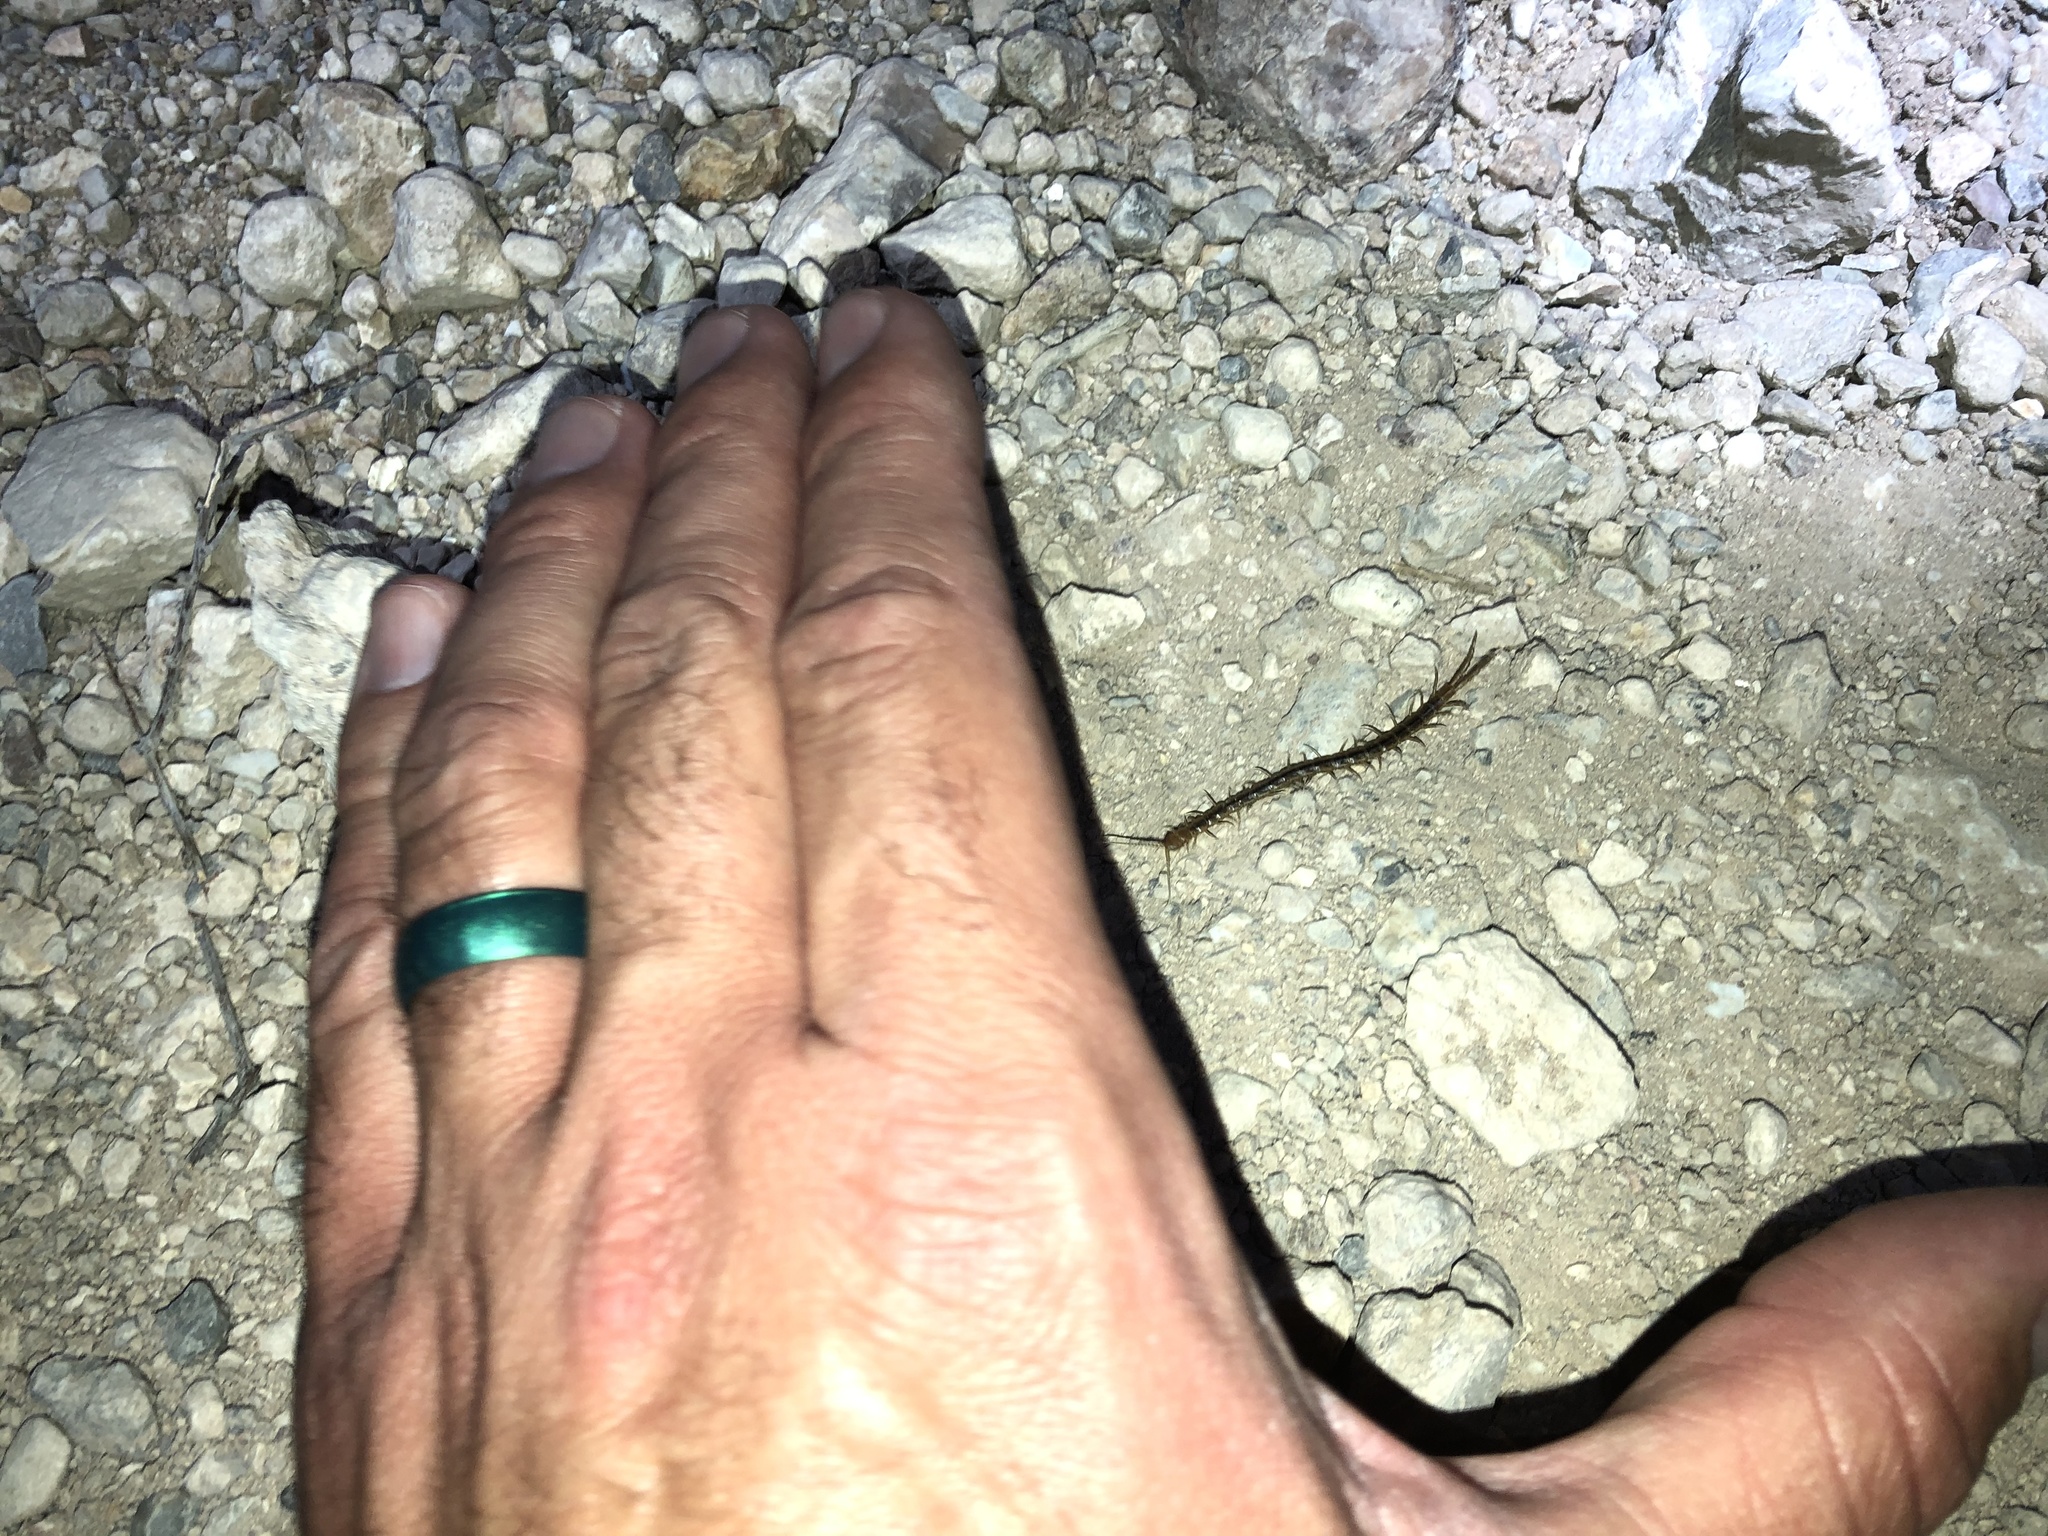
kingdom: Animalia
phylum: Arthropoda
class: Chilopoda
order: Scolopendromorpha
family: Scolopendridae
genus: Arthrorhabdus
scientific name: Arthrorhabdus pygmaeus
